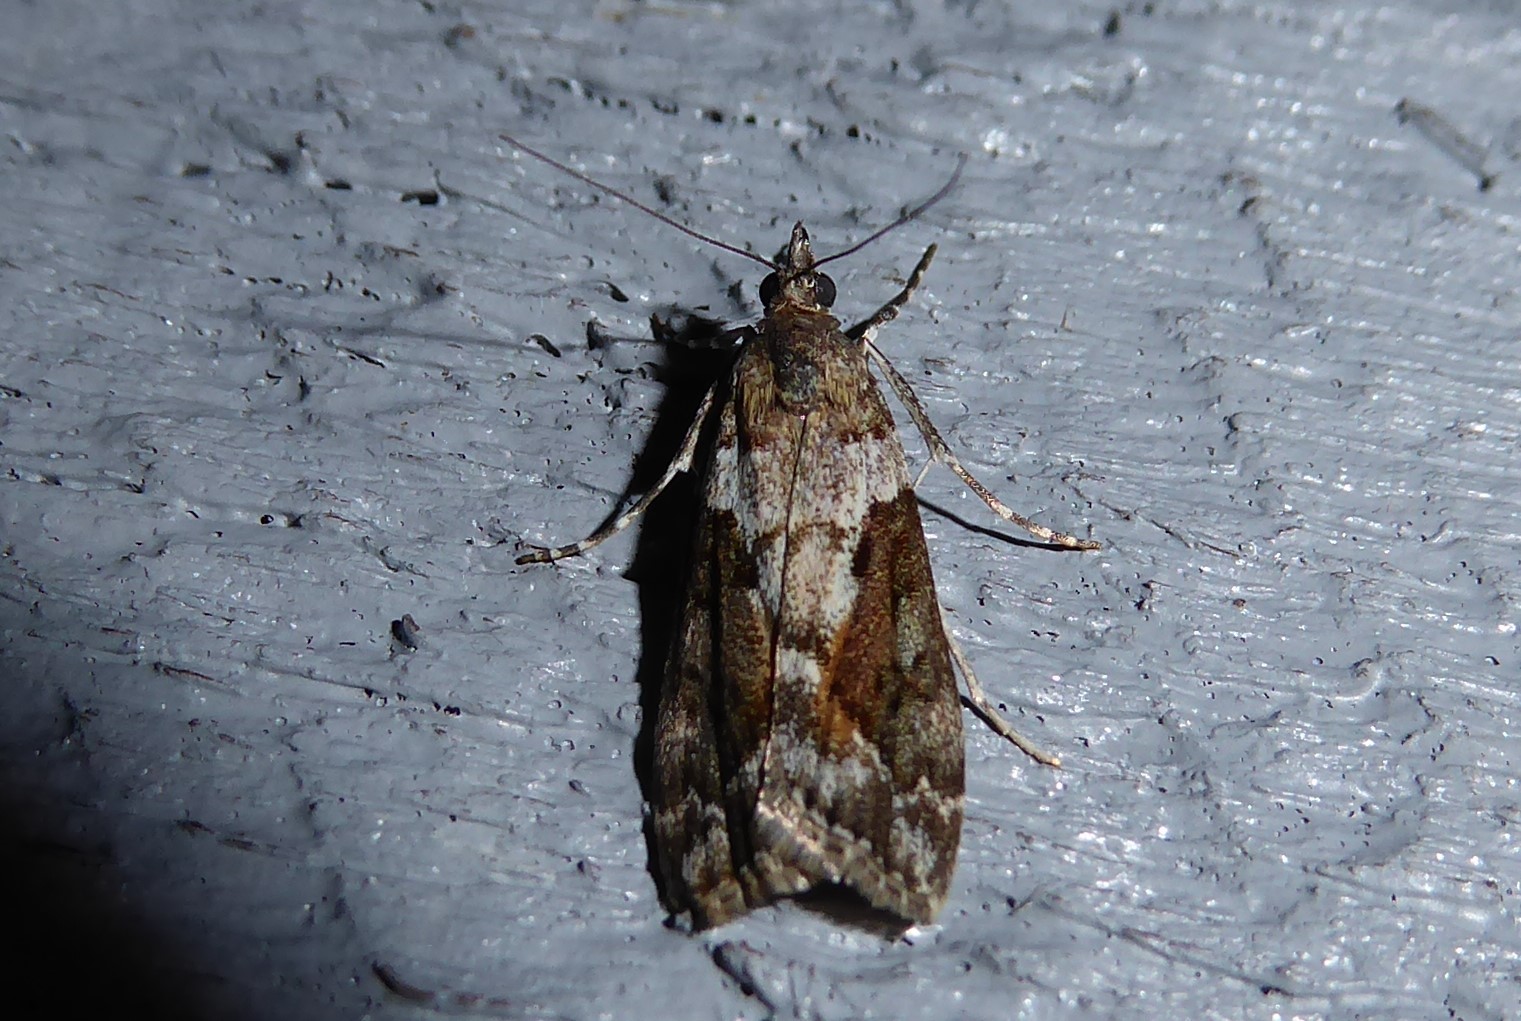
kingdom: Animalia
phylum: Arthropoda
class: Insecta
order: Lepidoptera
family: Crambidae
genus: Eudonia
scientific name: Eudonia submarginalis
